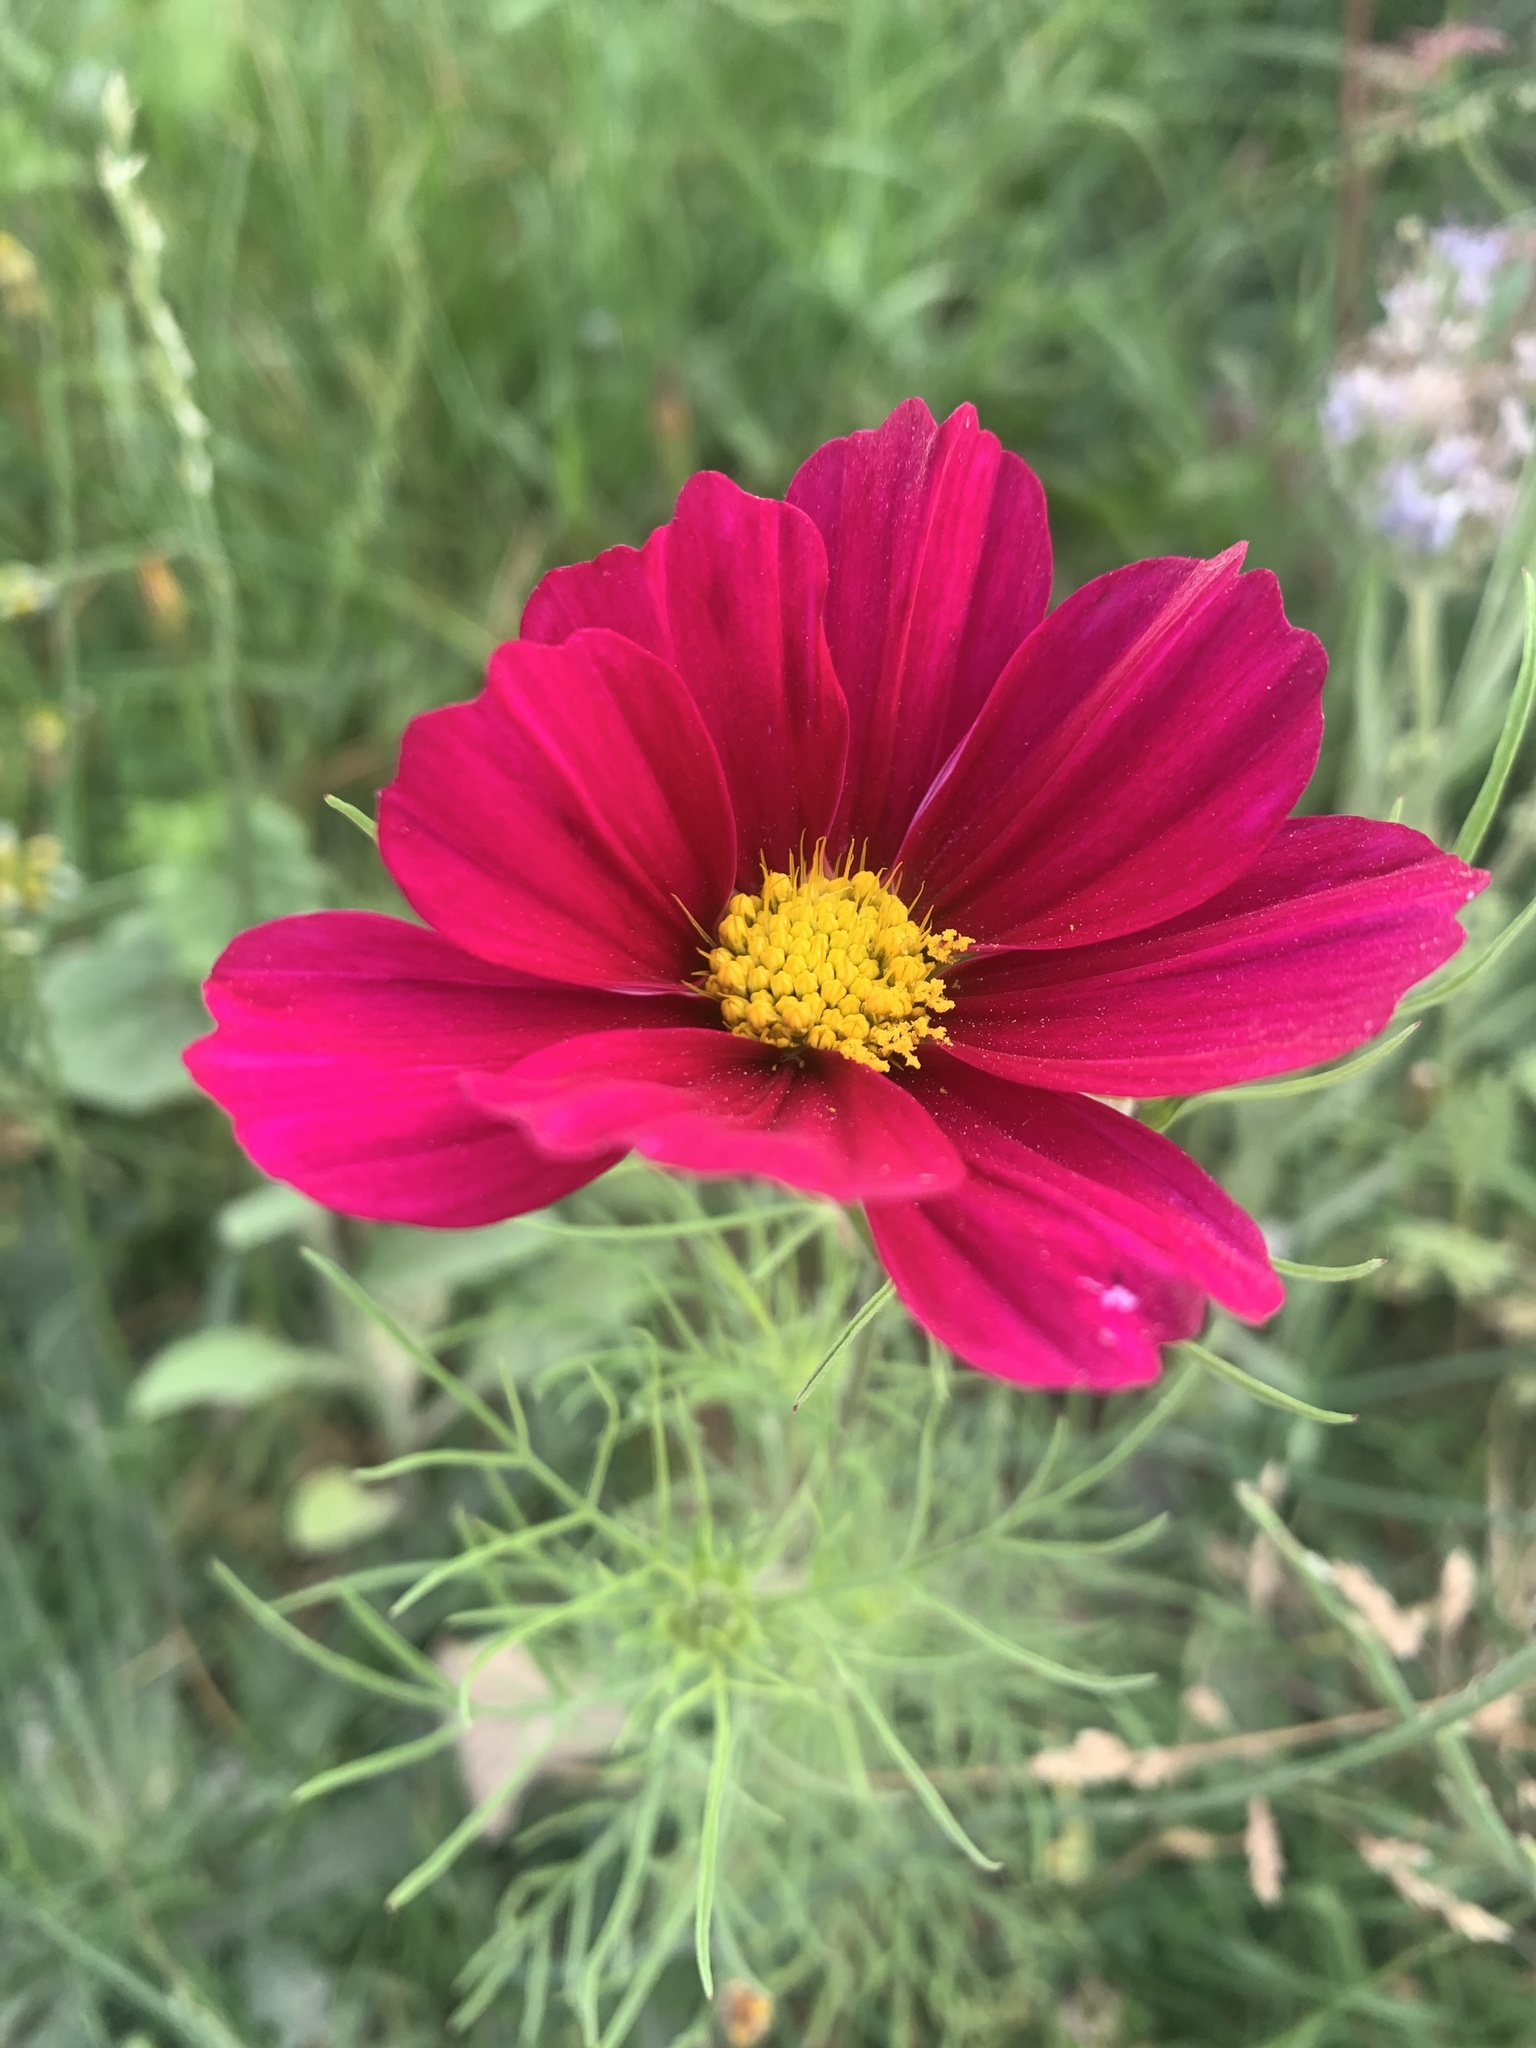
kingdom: Plantae
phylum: Tracheophyta
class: Magnoliopsida
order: Asterales
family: Asteraceae
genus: Cosmos
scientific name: Cosmos bipinnatus
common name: Garden cosmos
